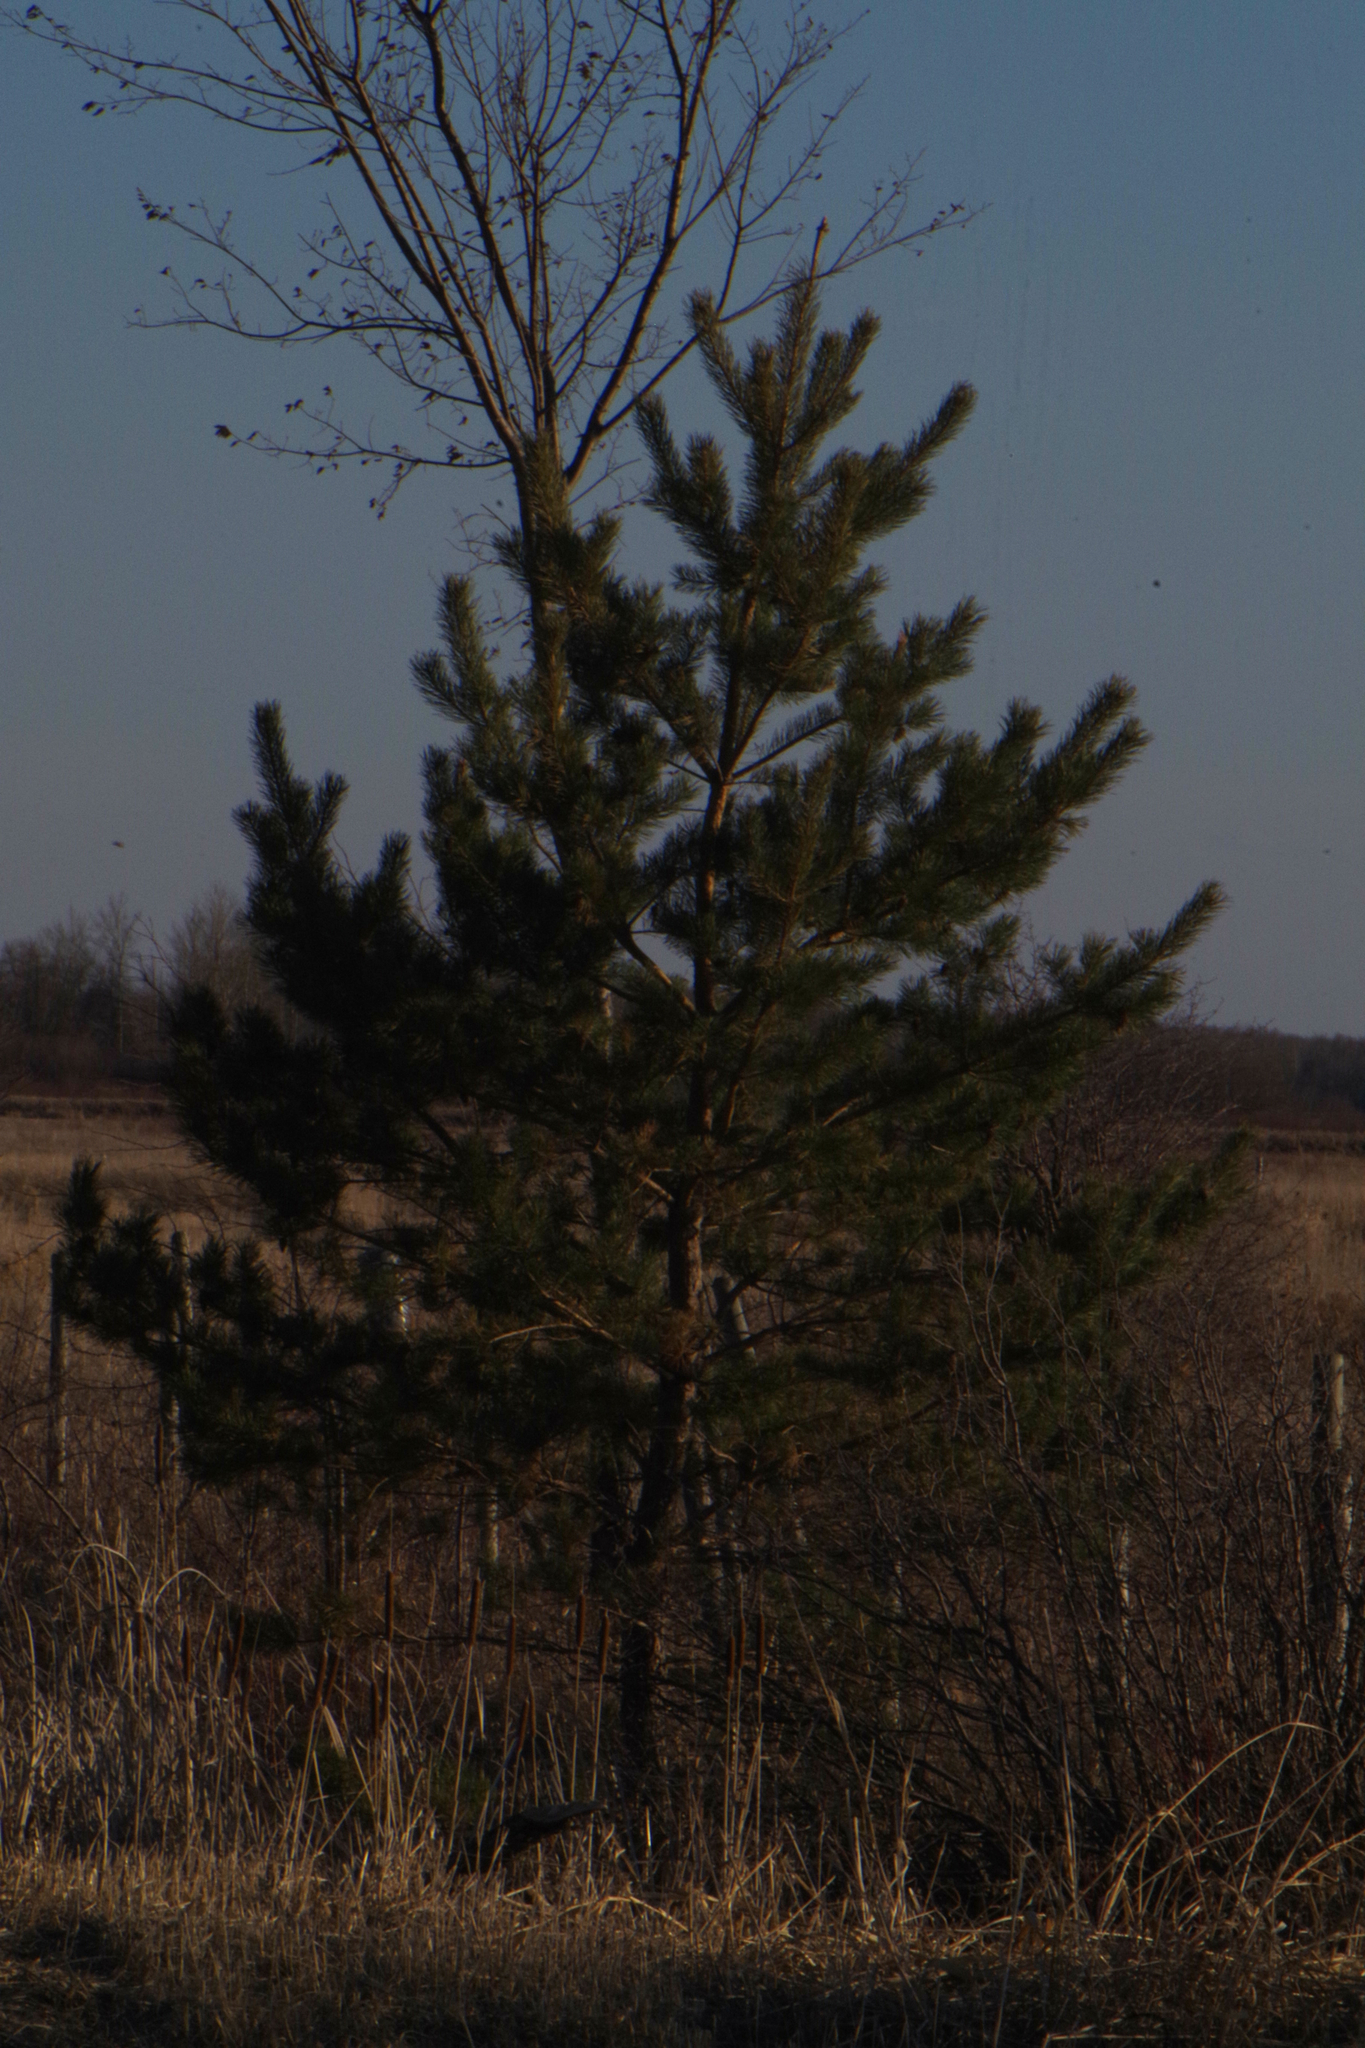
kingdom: Plantae
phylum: Tracheophyta
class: Pinopsida
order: Pinales
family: Pinaceae
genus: Pinus
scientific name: Pinus resinosa
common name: Norway pine
